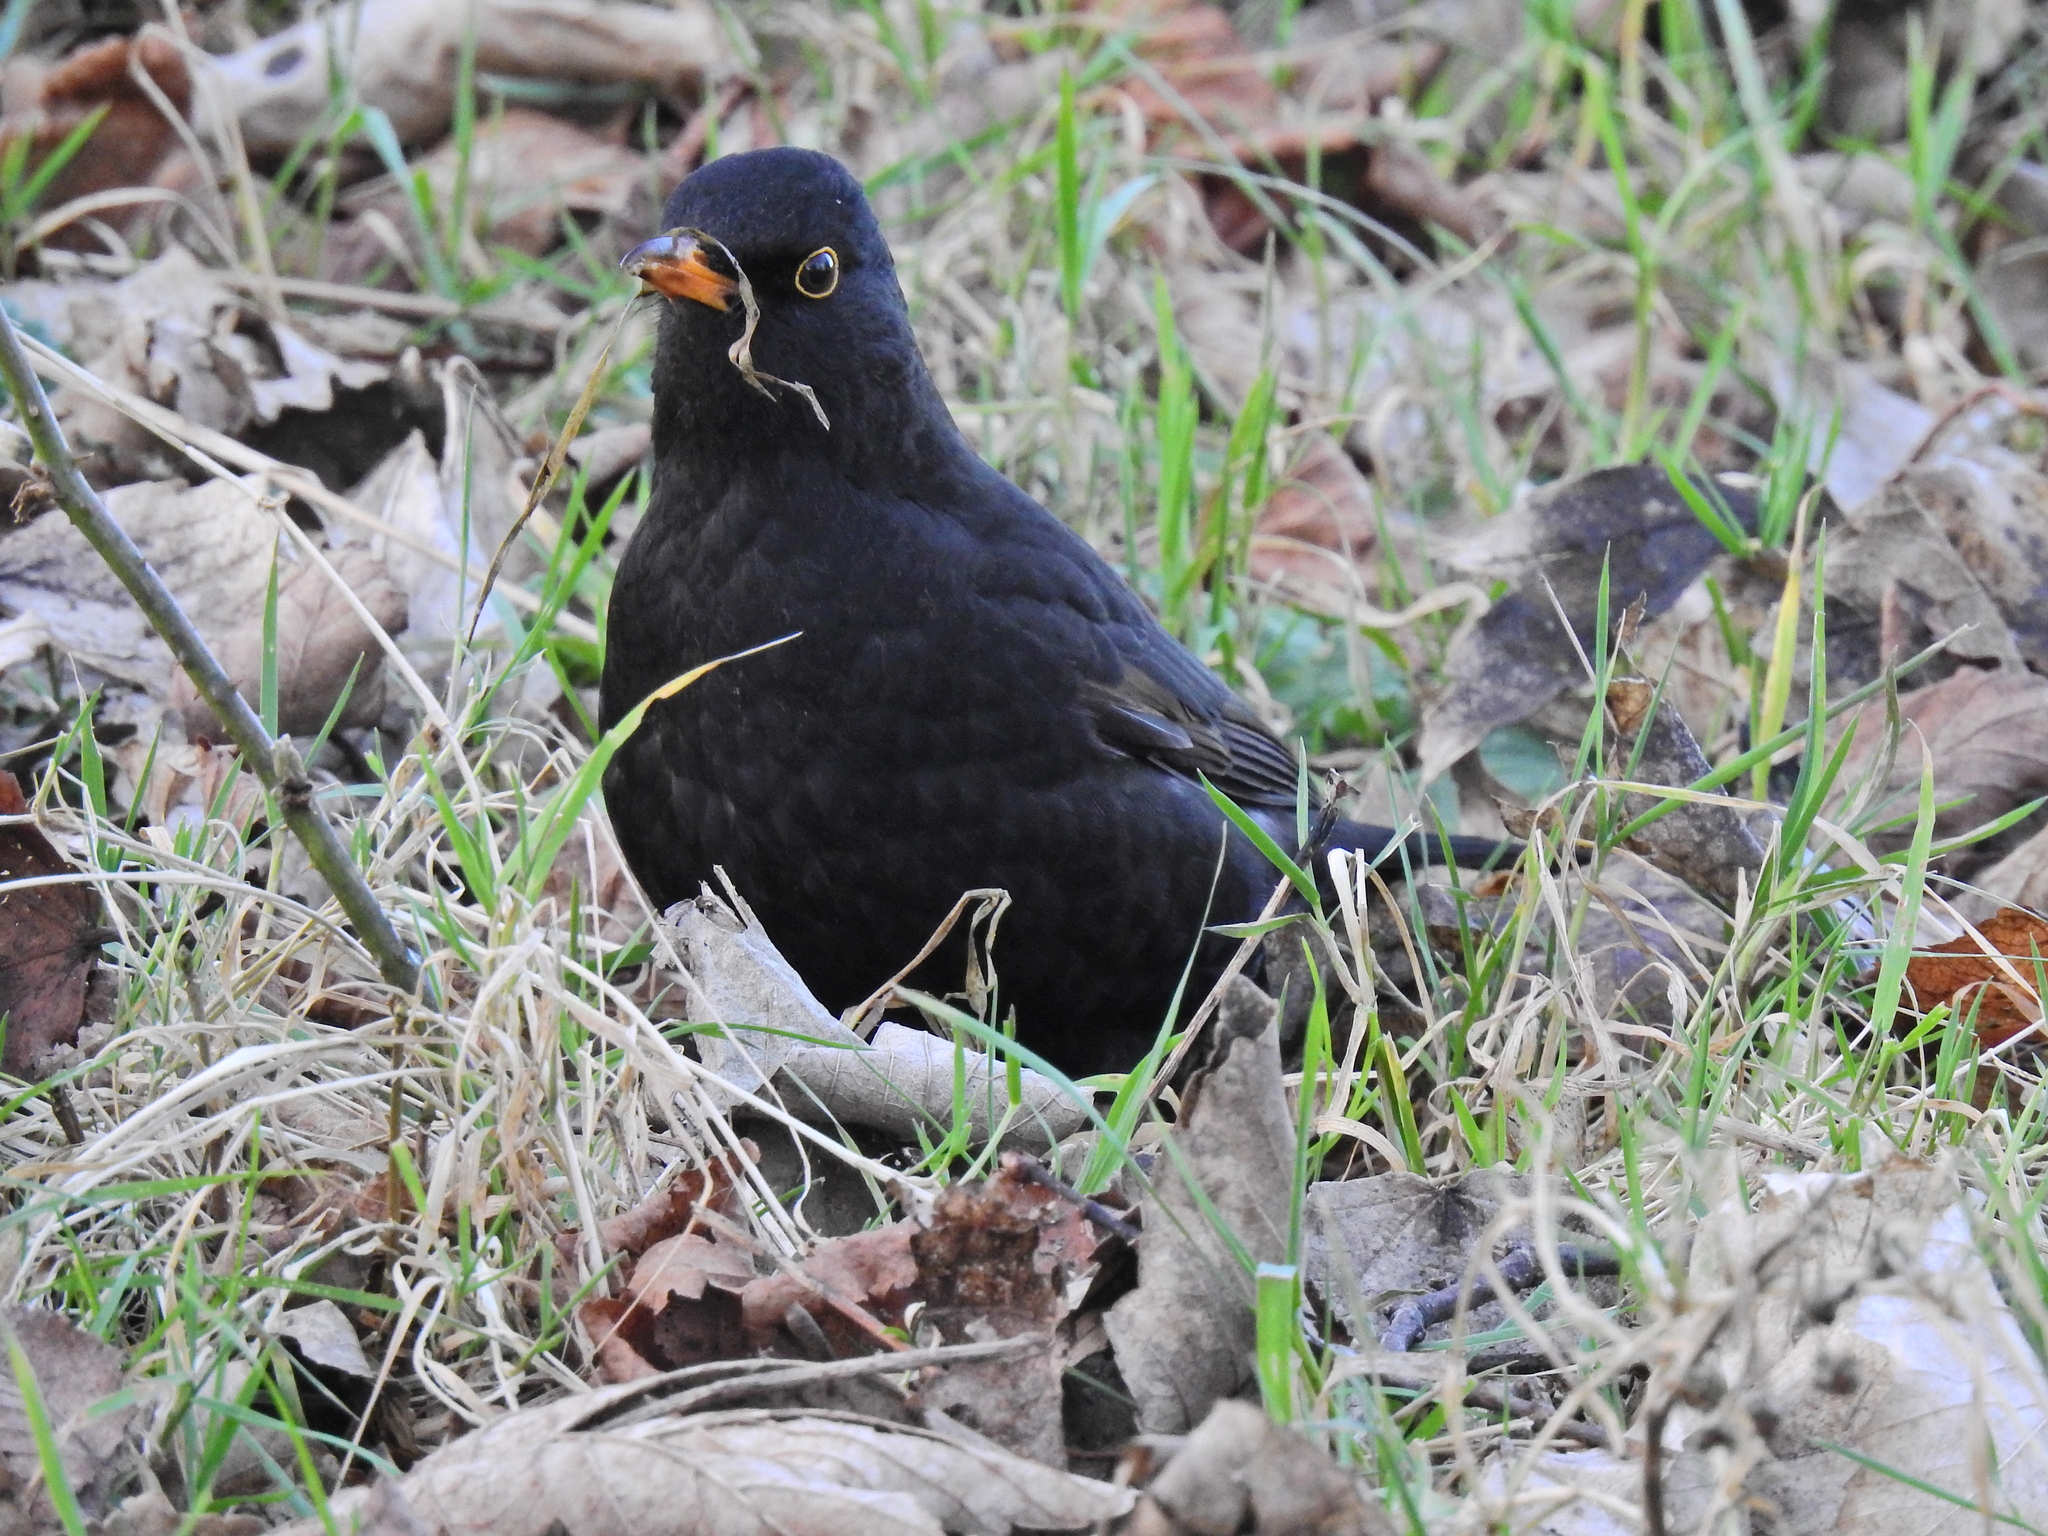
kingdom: Animalia
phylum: Chordata
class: Aves
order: Passeriformes
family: Turdidae
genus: Turdus
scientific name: Turdus merula
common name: Common blackbird
